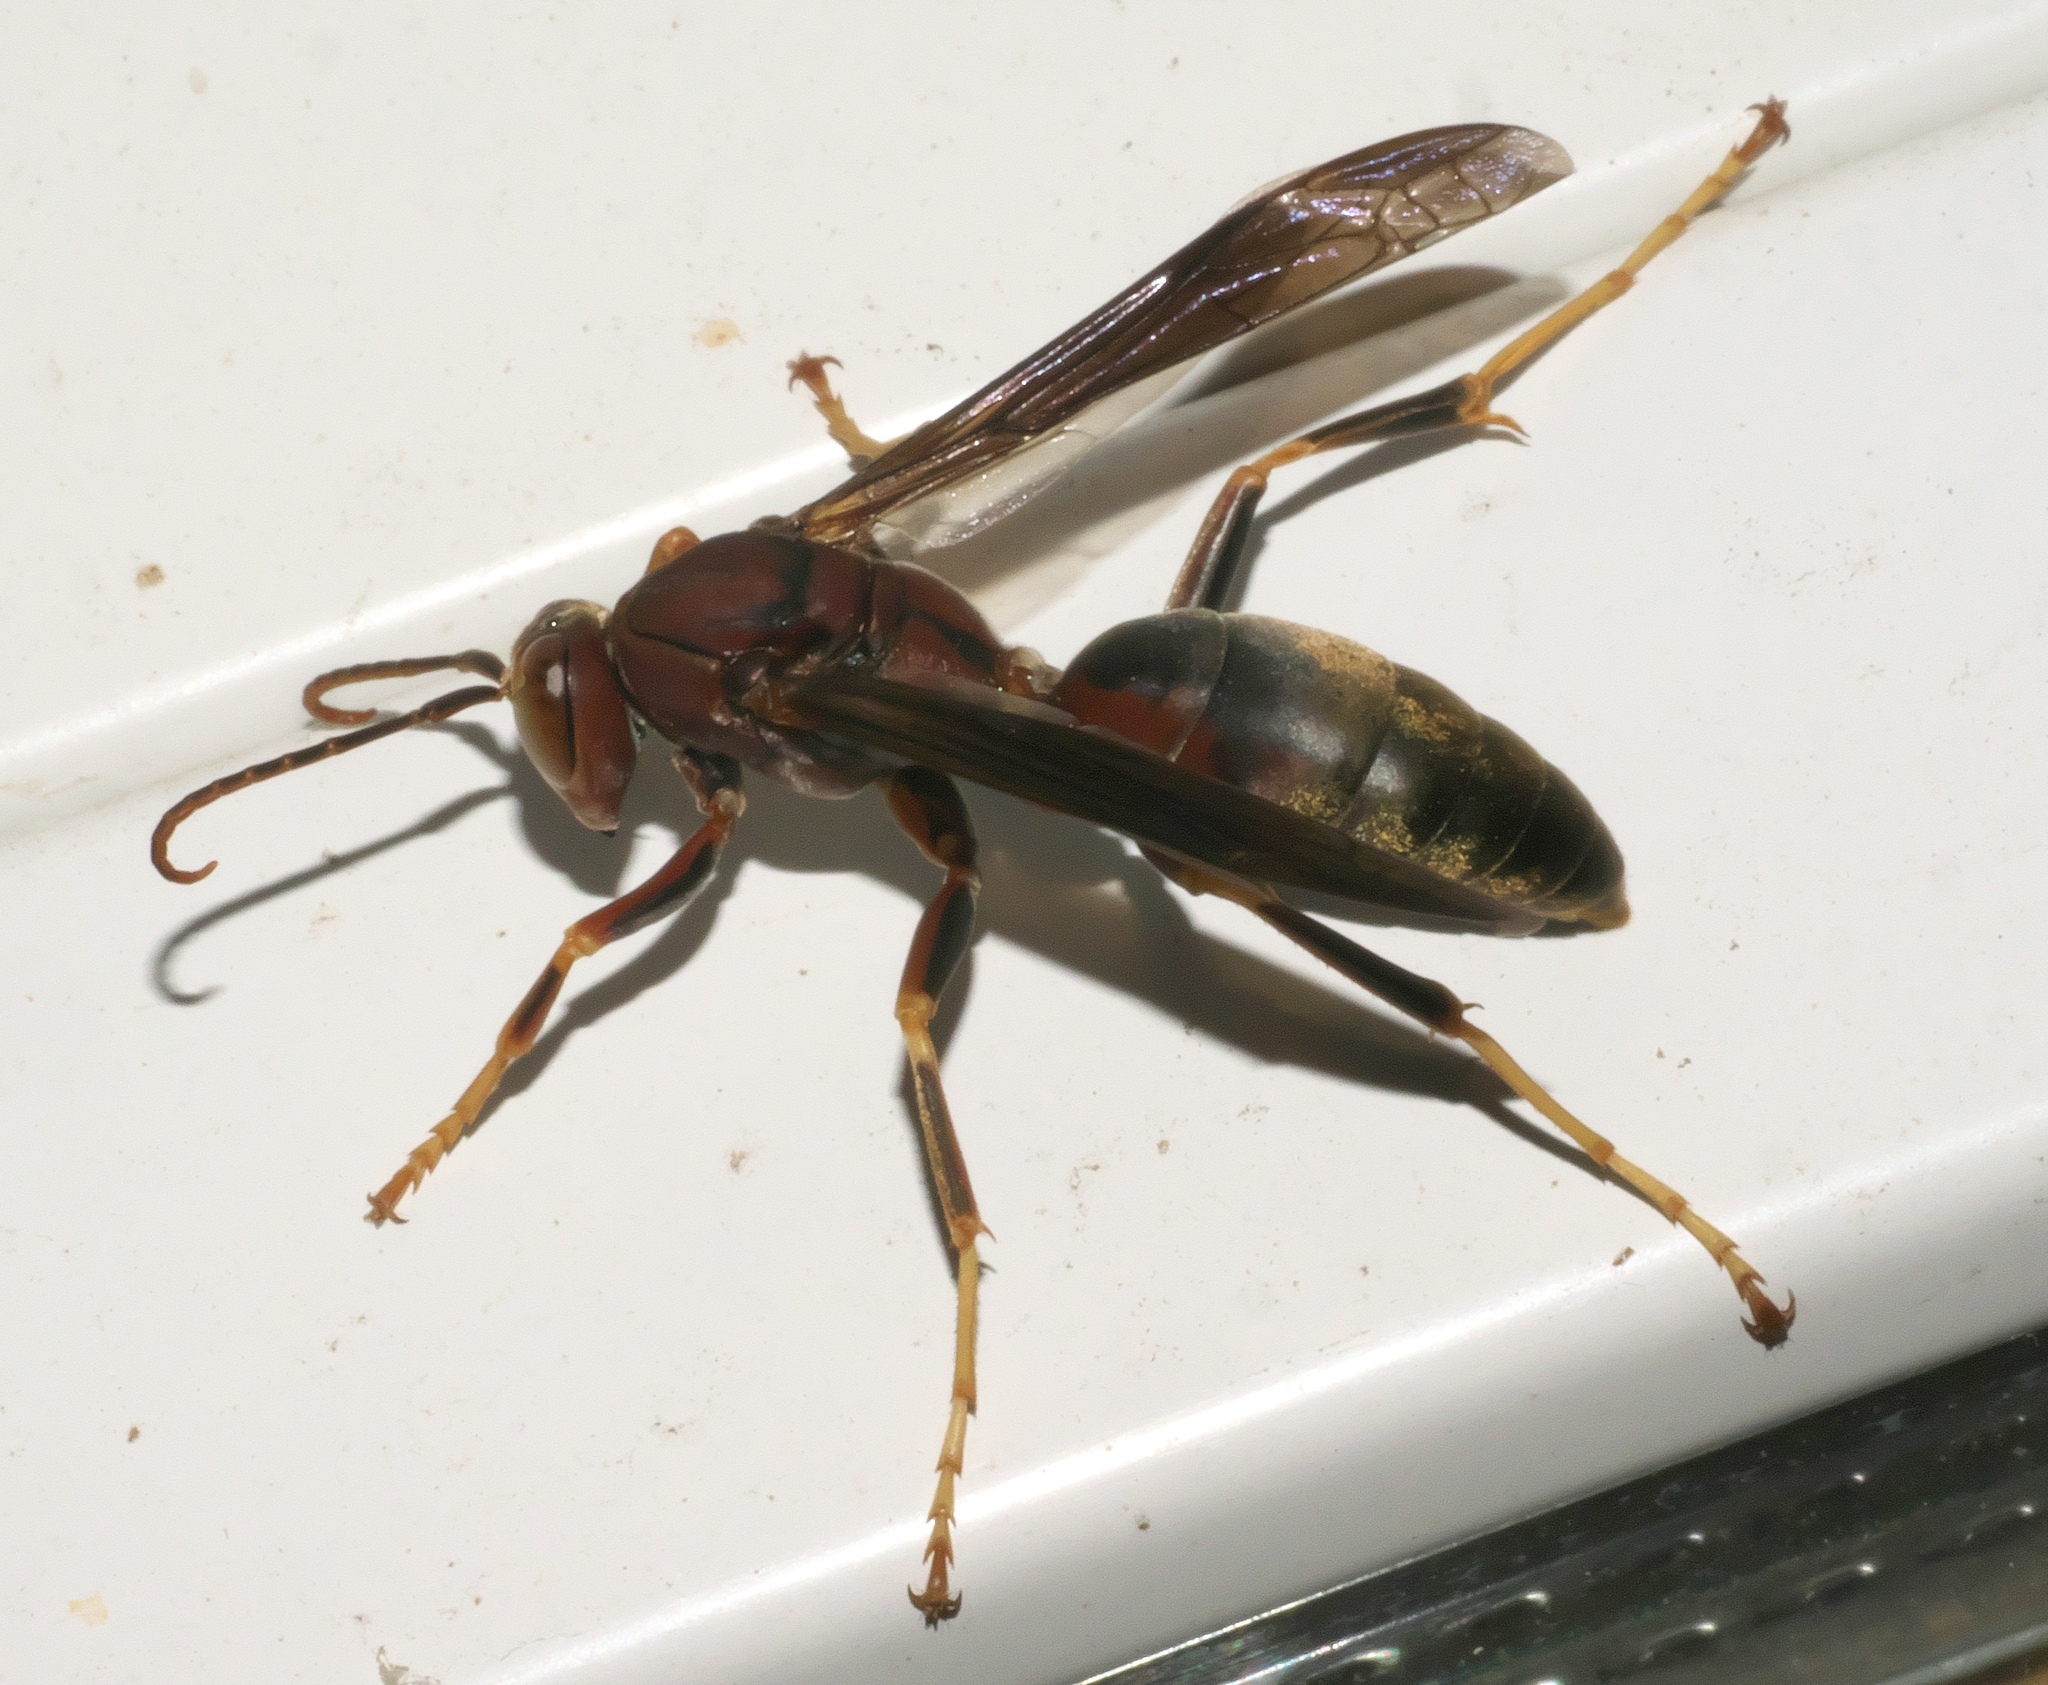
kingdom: Animalia
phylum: Arthropoda
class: Insecta
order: Hymenoptera
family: Eumenidae
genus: Polistes
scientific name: Polistes metricus
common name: Metric paper wasp
